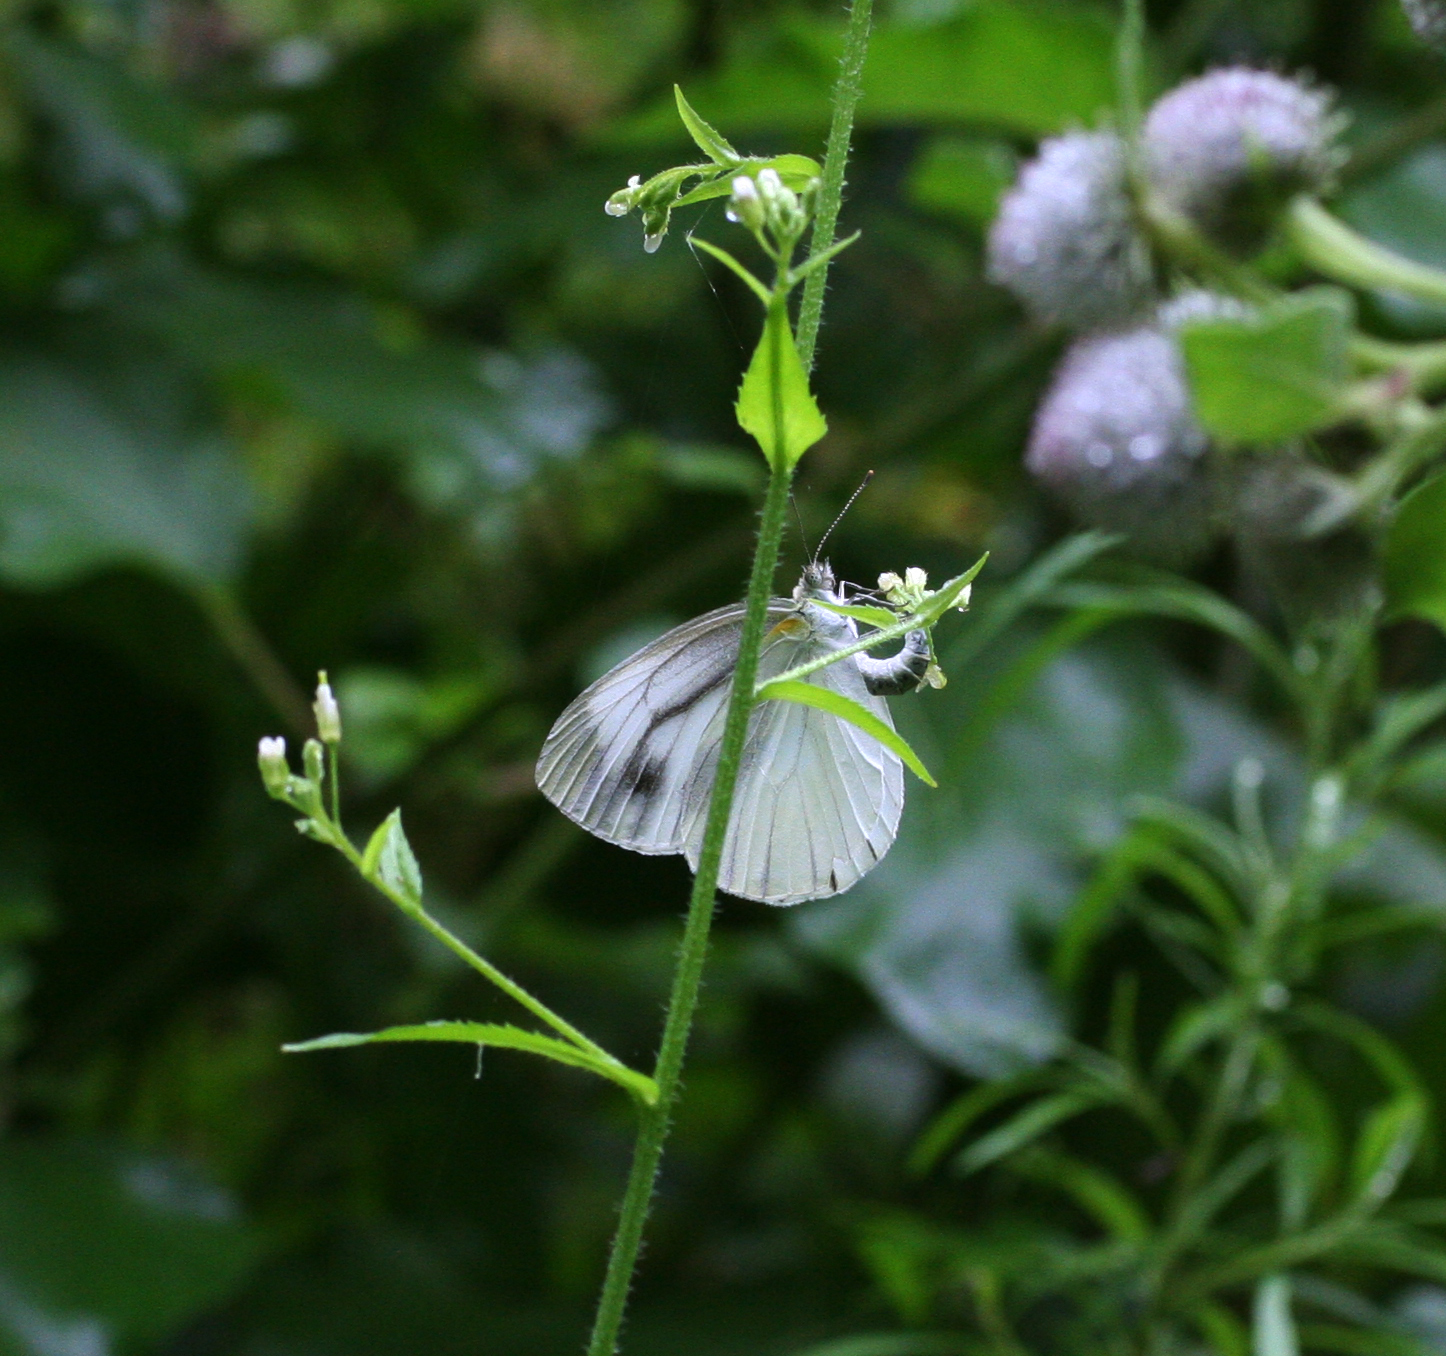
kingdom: Animalia
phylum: Arthropoda
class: Insecta
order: Lepidoptera
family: Pieridae
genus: Pieris
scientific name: Pieris melete
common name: Asian green-veined white
